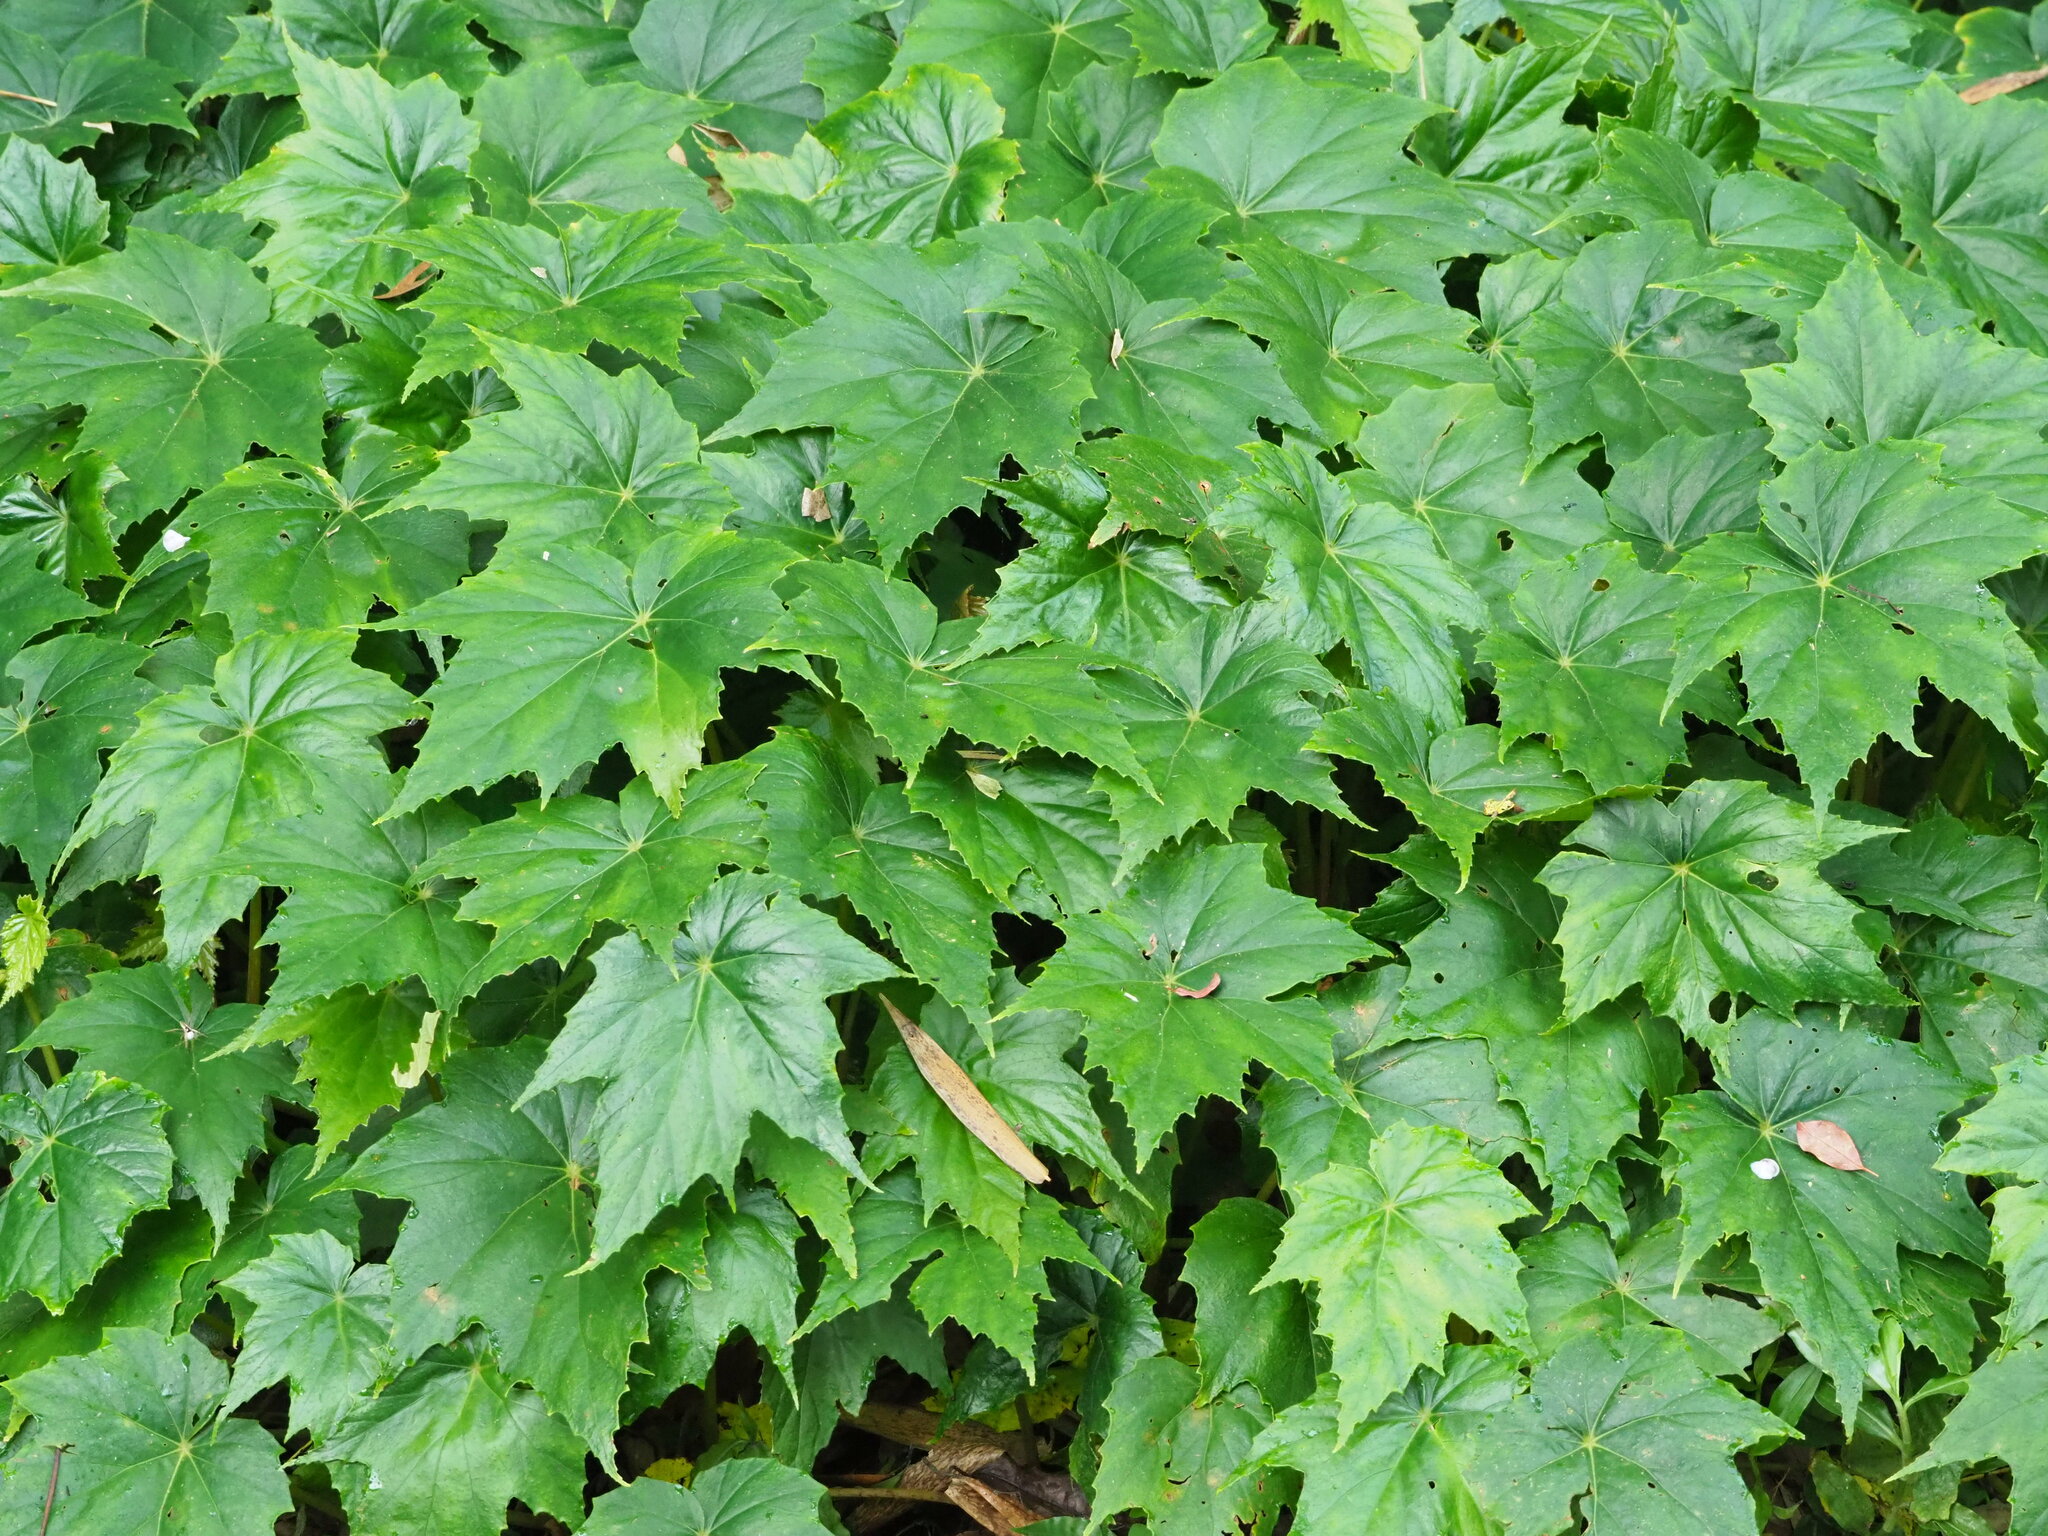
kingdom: Plantae
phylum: Tracheophyta
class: Magnoliopsida
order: Cucurbitales
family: Begoniaceae
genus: Begonia
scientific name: Begonia formosana
